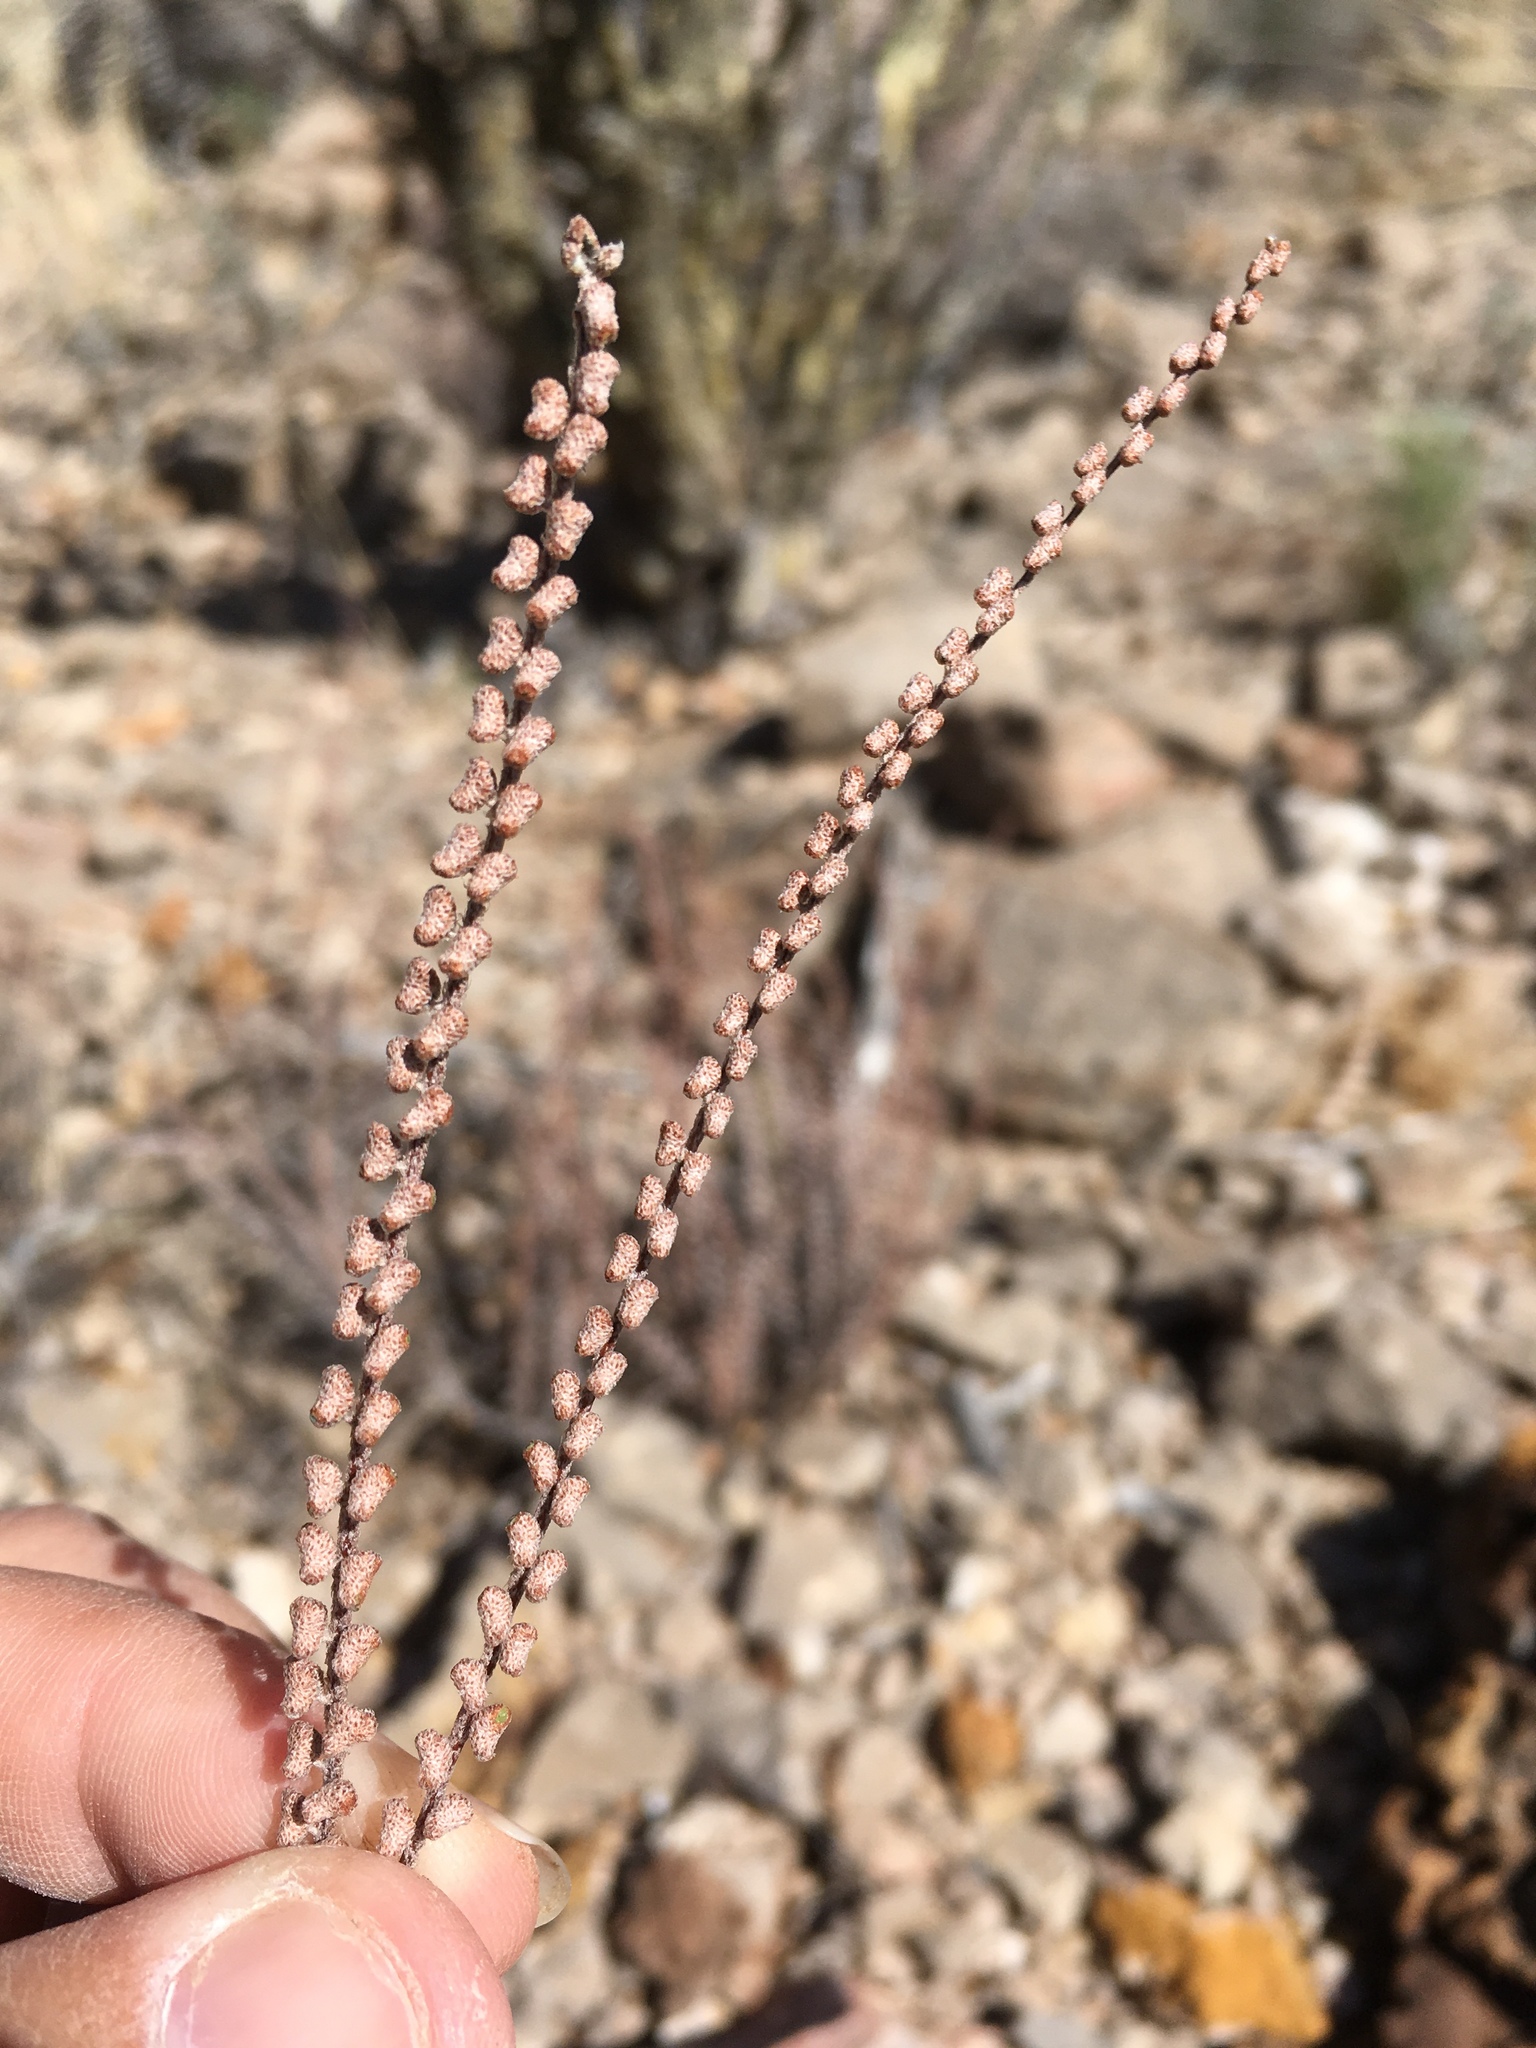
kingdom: Plantae
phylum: Tracheophyta
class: Polypodiopsida
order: Polypodiales
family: Pteridaceae
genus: Astrolepis
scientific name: Astrolepis cochisensis
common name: Scaly cloak fern
